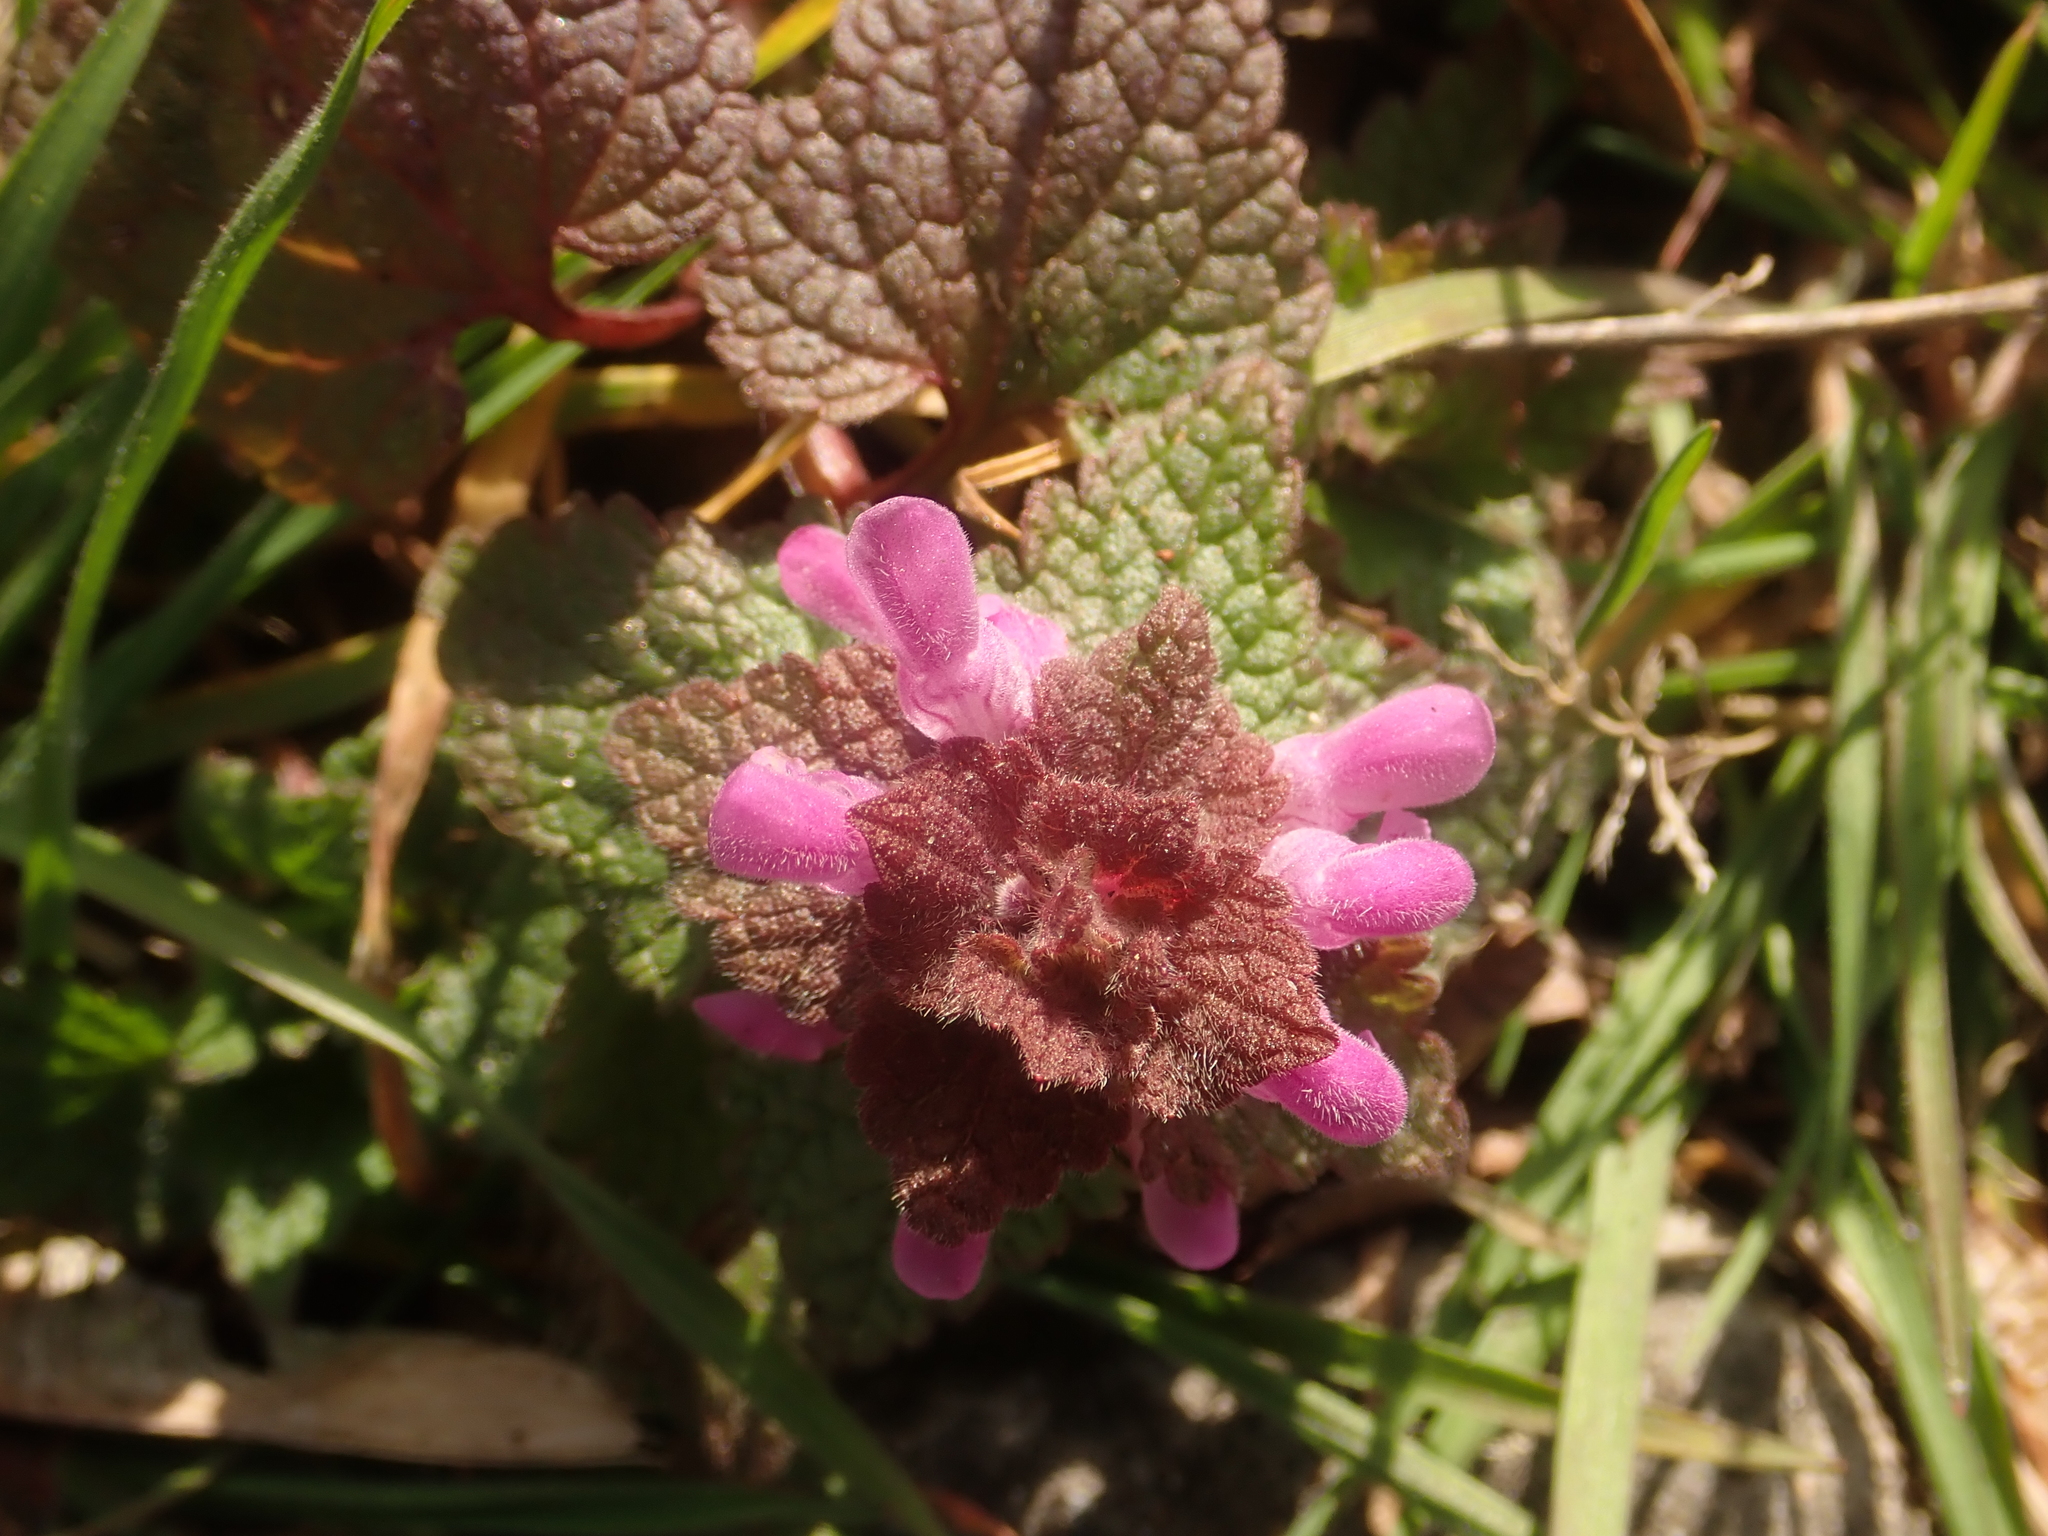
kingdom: Plantae
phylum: Tracheophyta
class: Magnoliopsida
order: Lamiales
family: Lamiaceae
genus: Lamium
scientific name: Lamium purpureum
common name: Red dead-nettle
